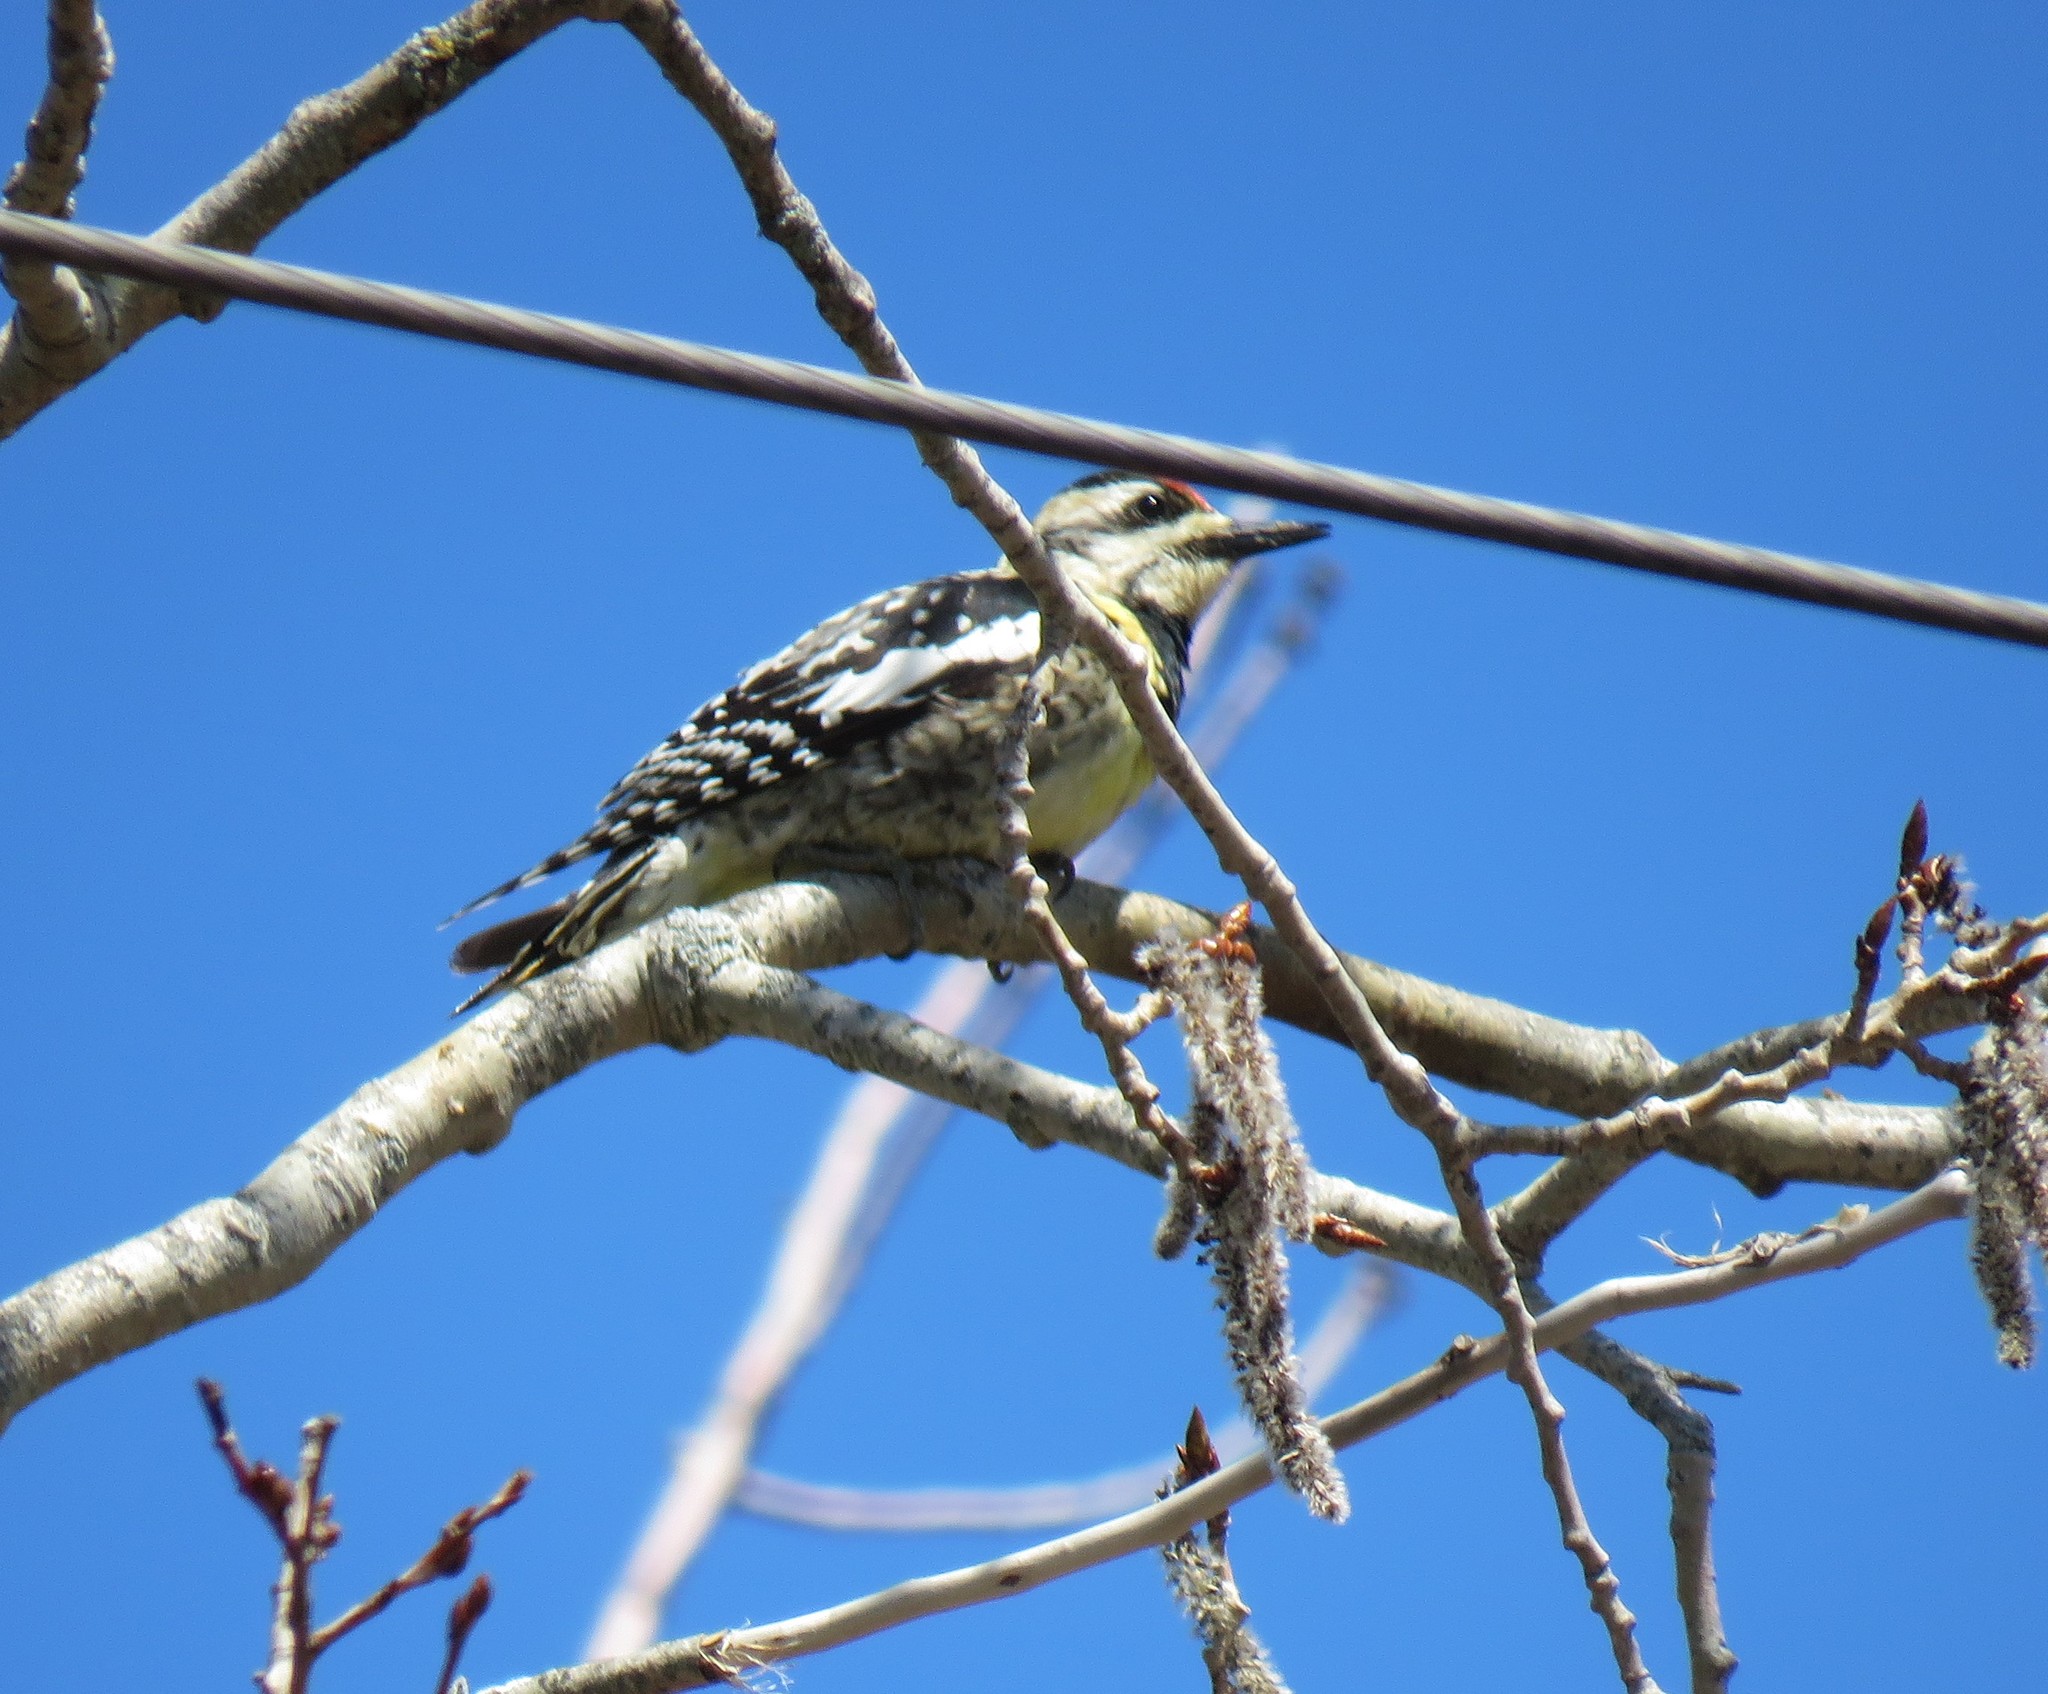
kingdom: Animalia
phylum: Chordata
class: Aves
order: Piciformes
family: Picidae
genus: Sphyrapicus
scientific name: Sphyrapicus varius
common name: Yellow-bellied sapsucker
